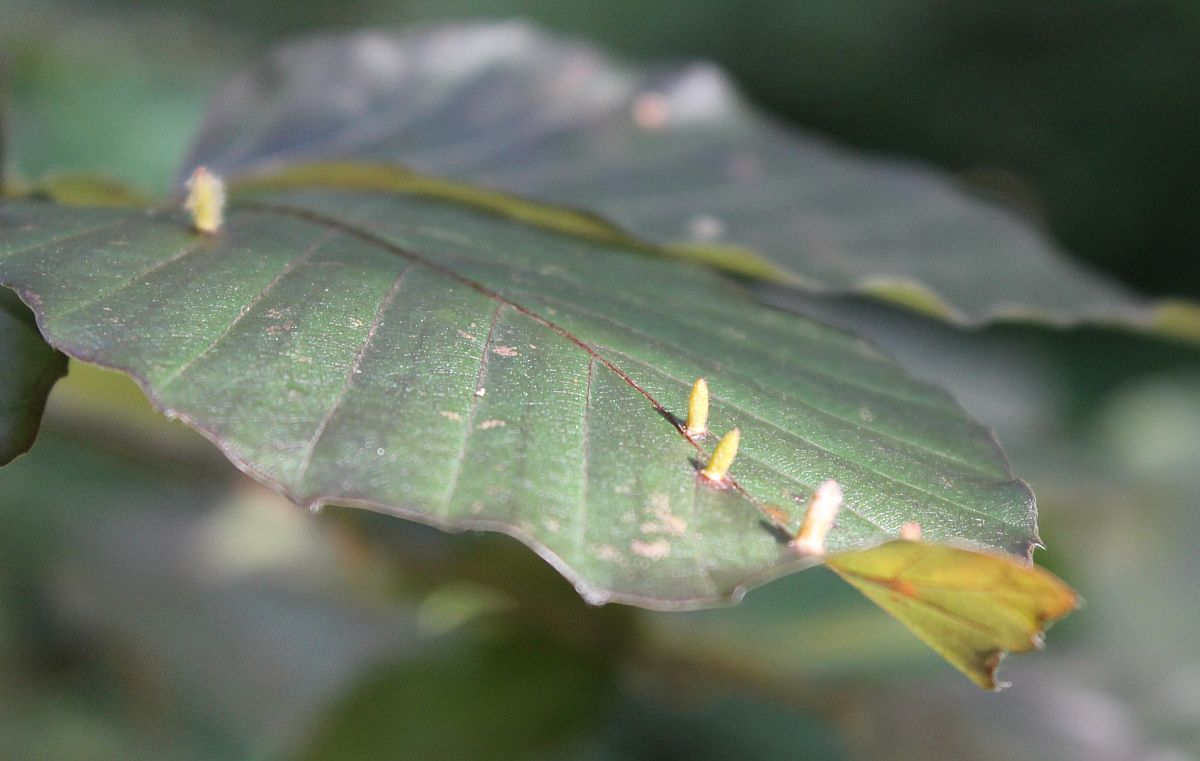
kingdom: Animalia
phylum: Arthropoda
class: Insecta
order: Diptera
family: Cecidomyiidae
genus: Hartigiola
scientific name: Hartigiola annulipes
